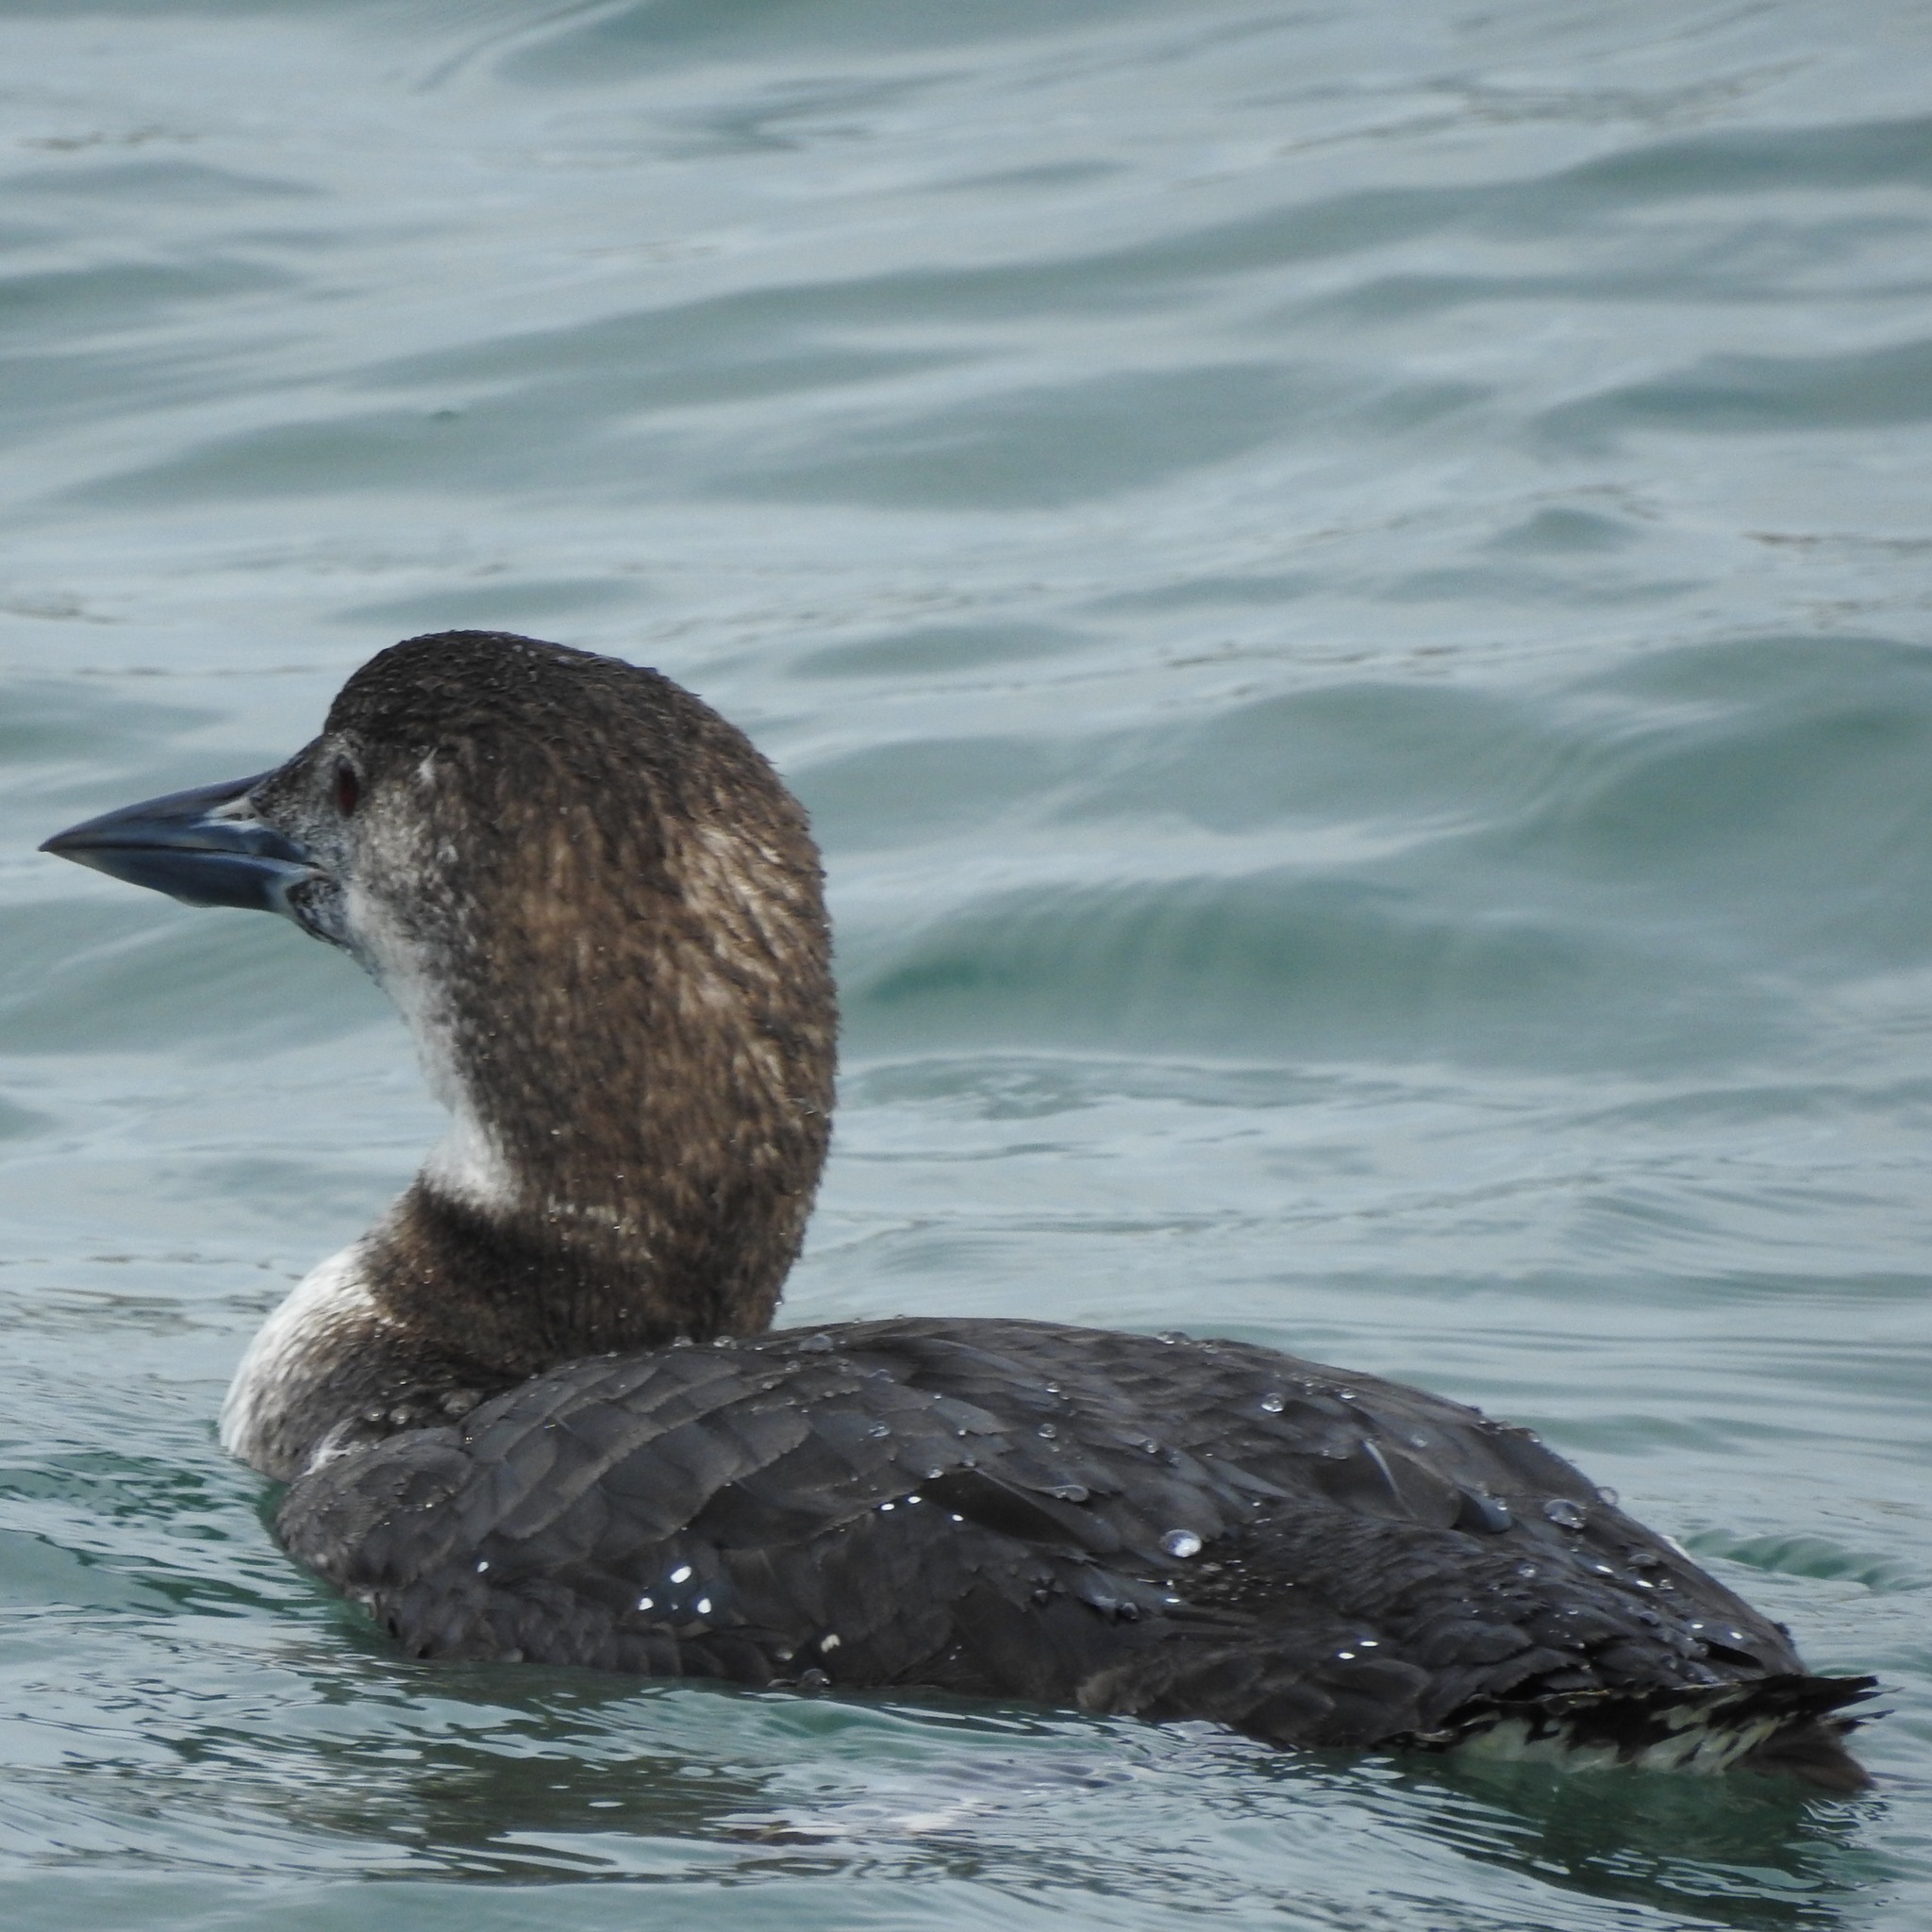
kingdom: Animalia
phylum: Chordata
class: Aves
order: Gaviiformes
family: Gaviidae
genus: Gavia
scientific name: Gavia immer
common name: Common loon
